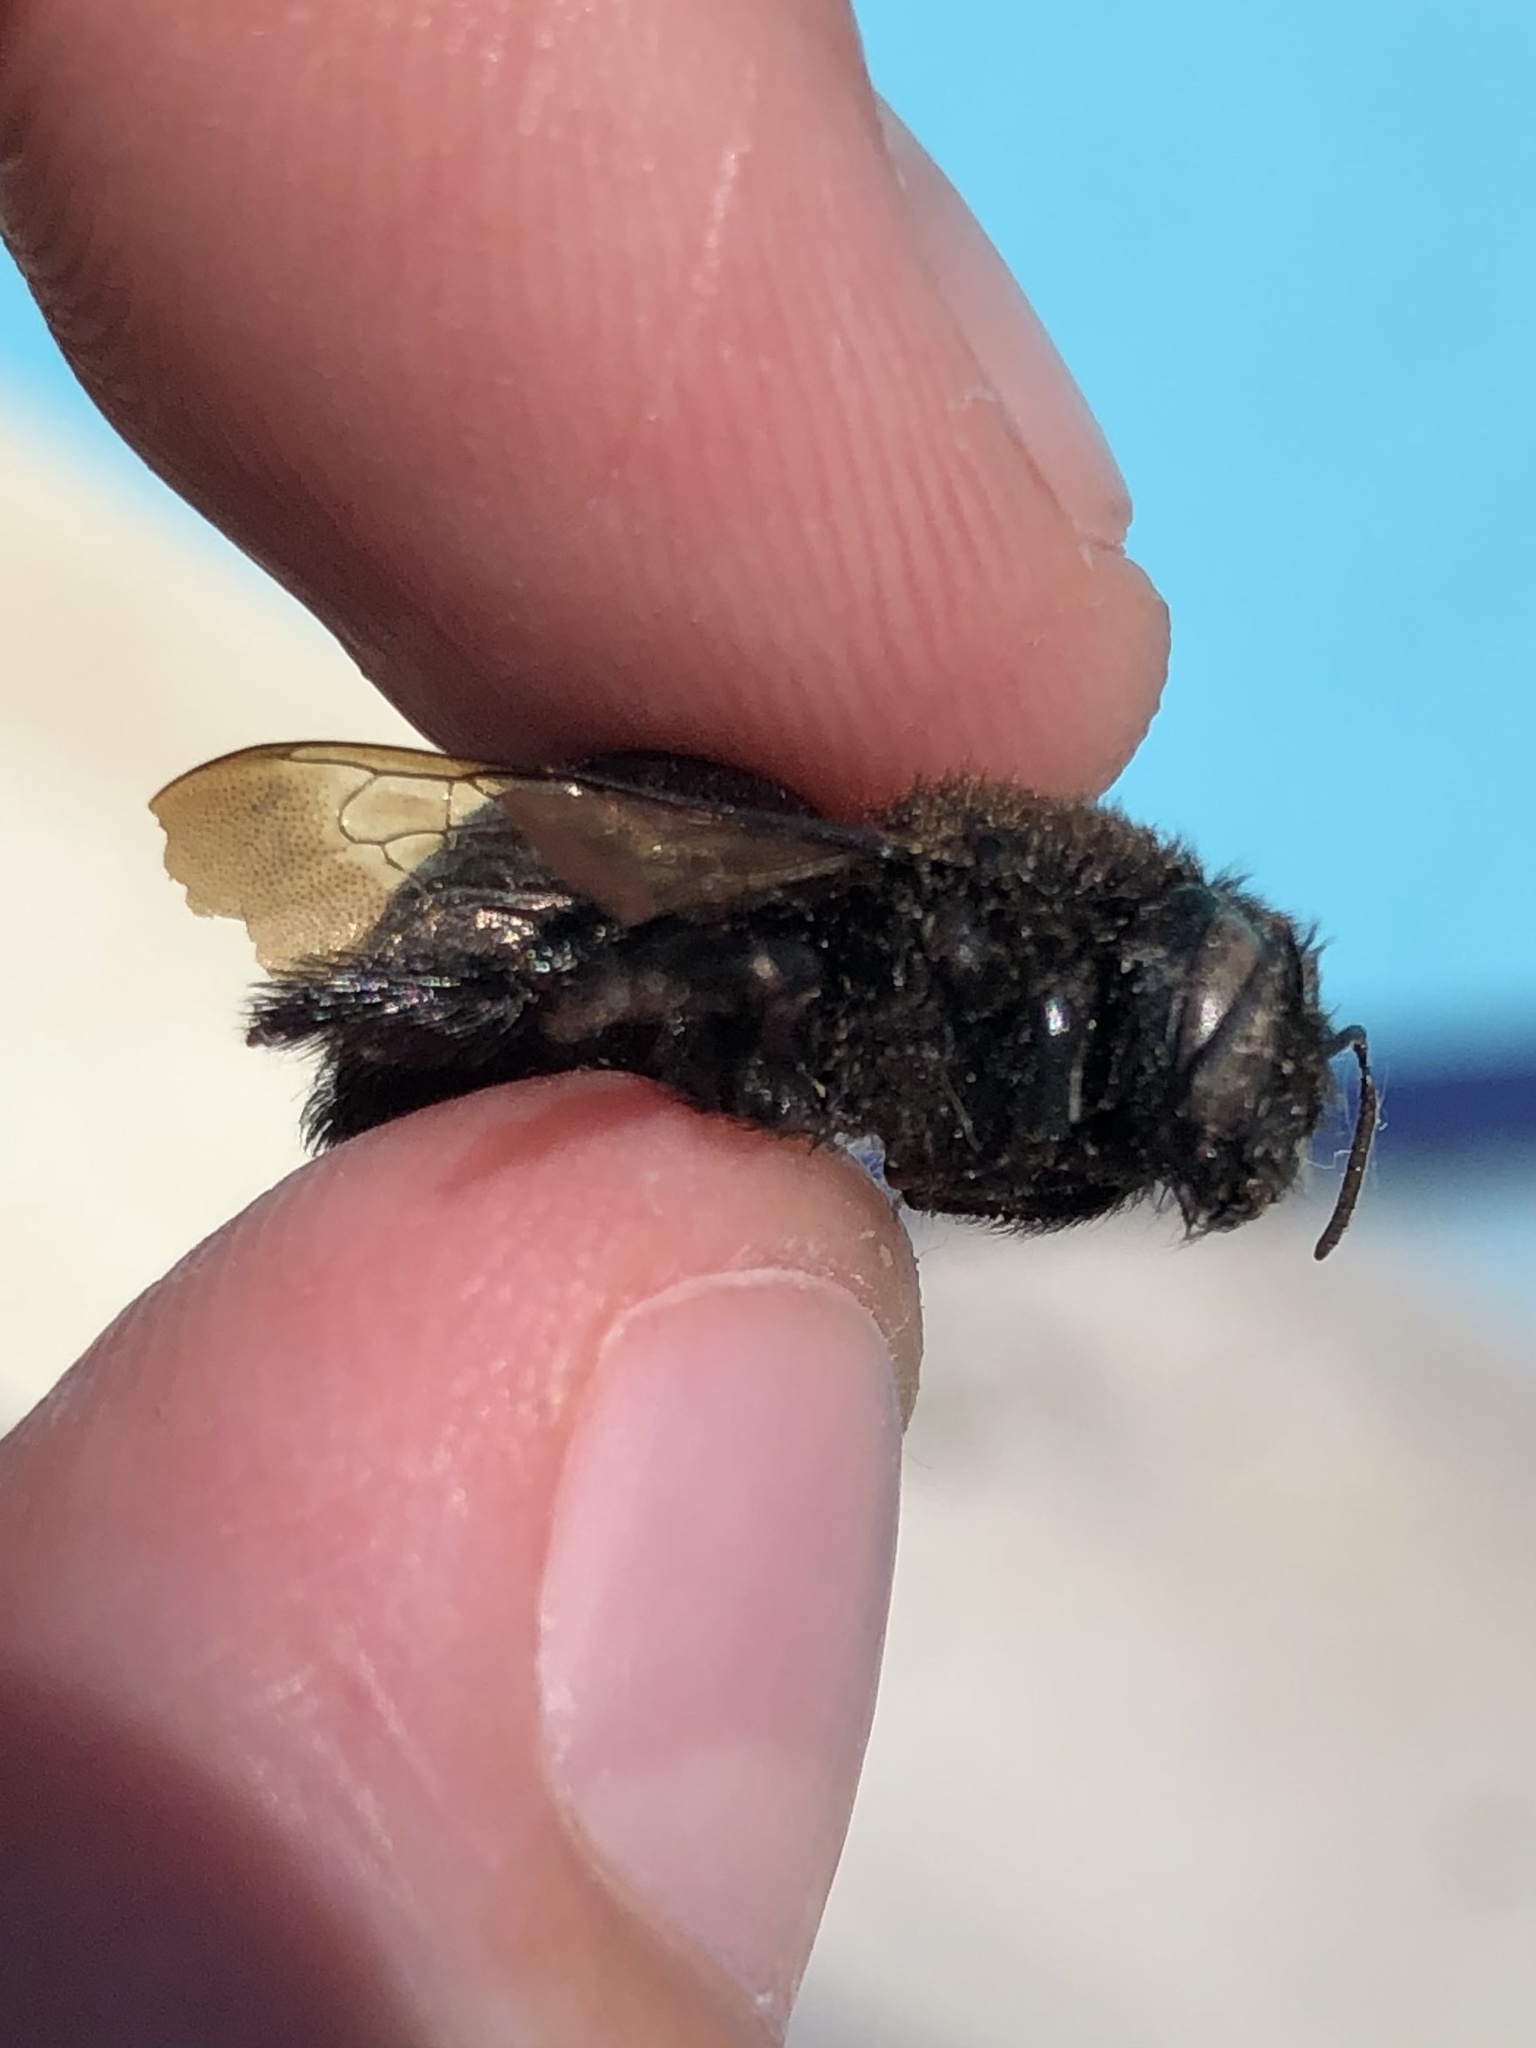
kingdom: Animalia
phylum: Arthropoda
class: Insecta
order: Hymenoptera
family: Apidae
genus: Xylocopa
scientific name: Xylocopa tabaniformis
